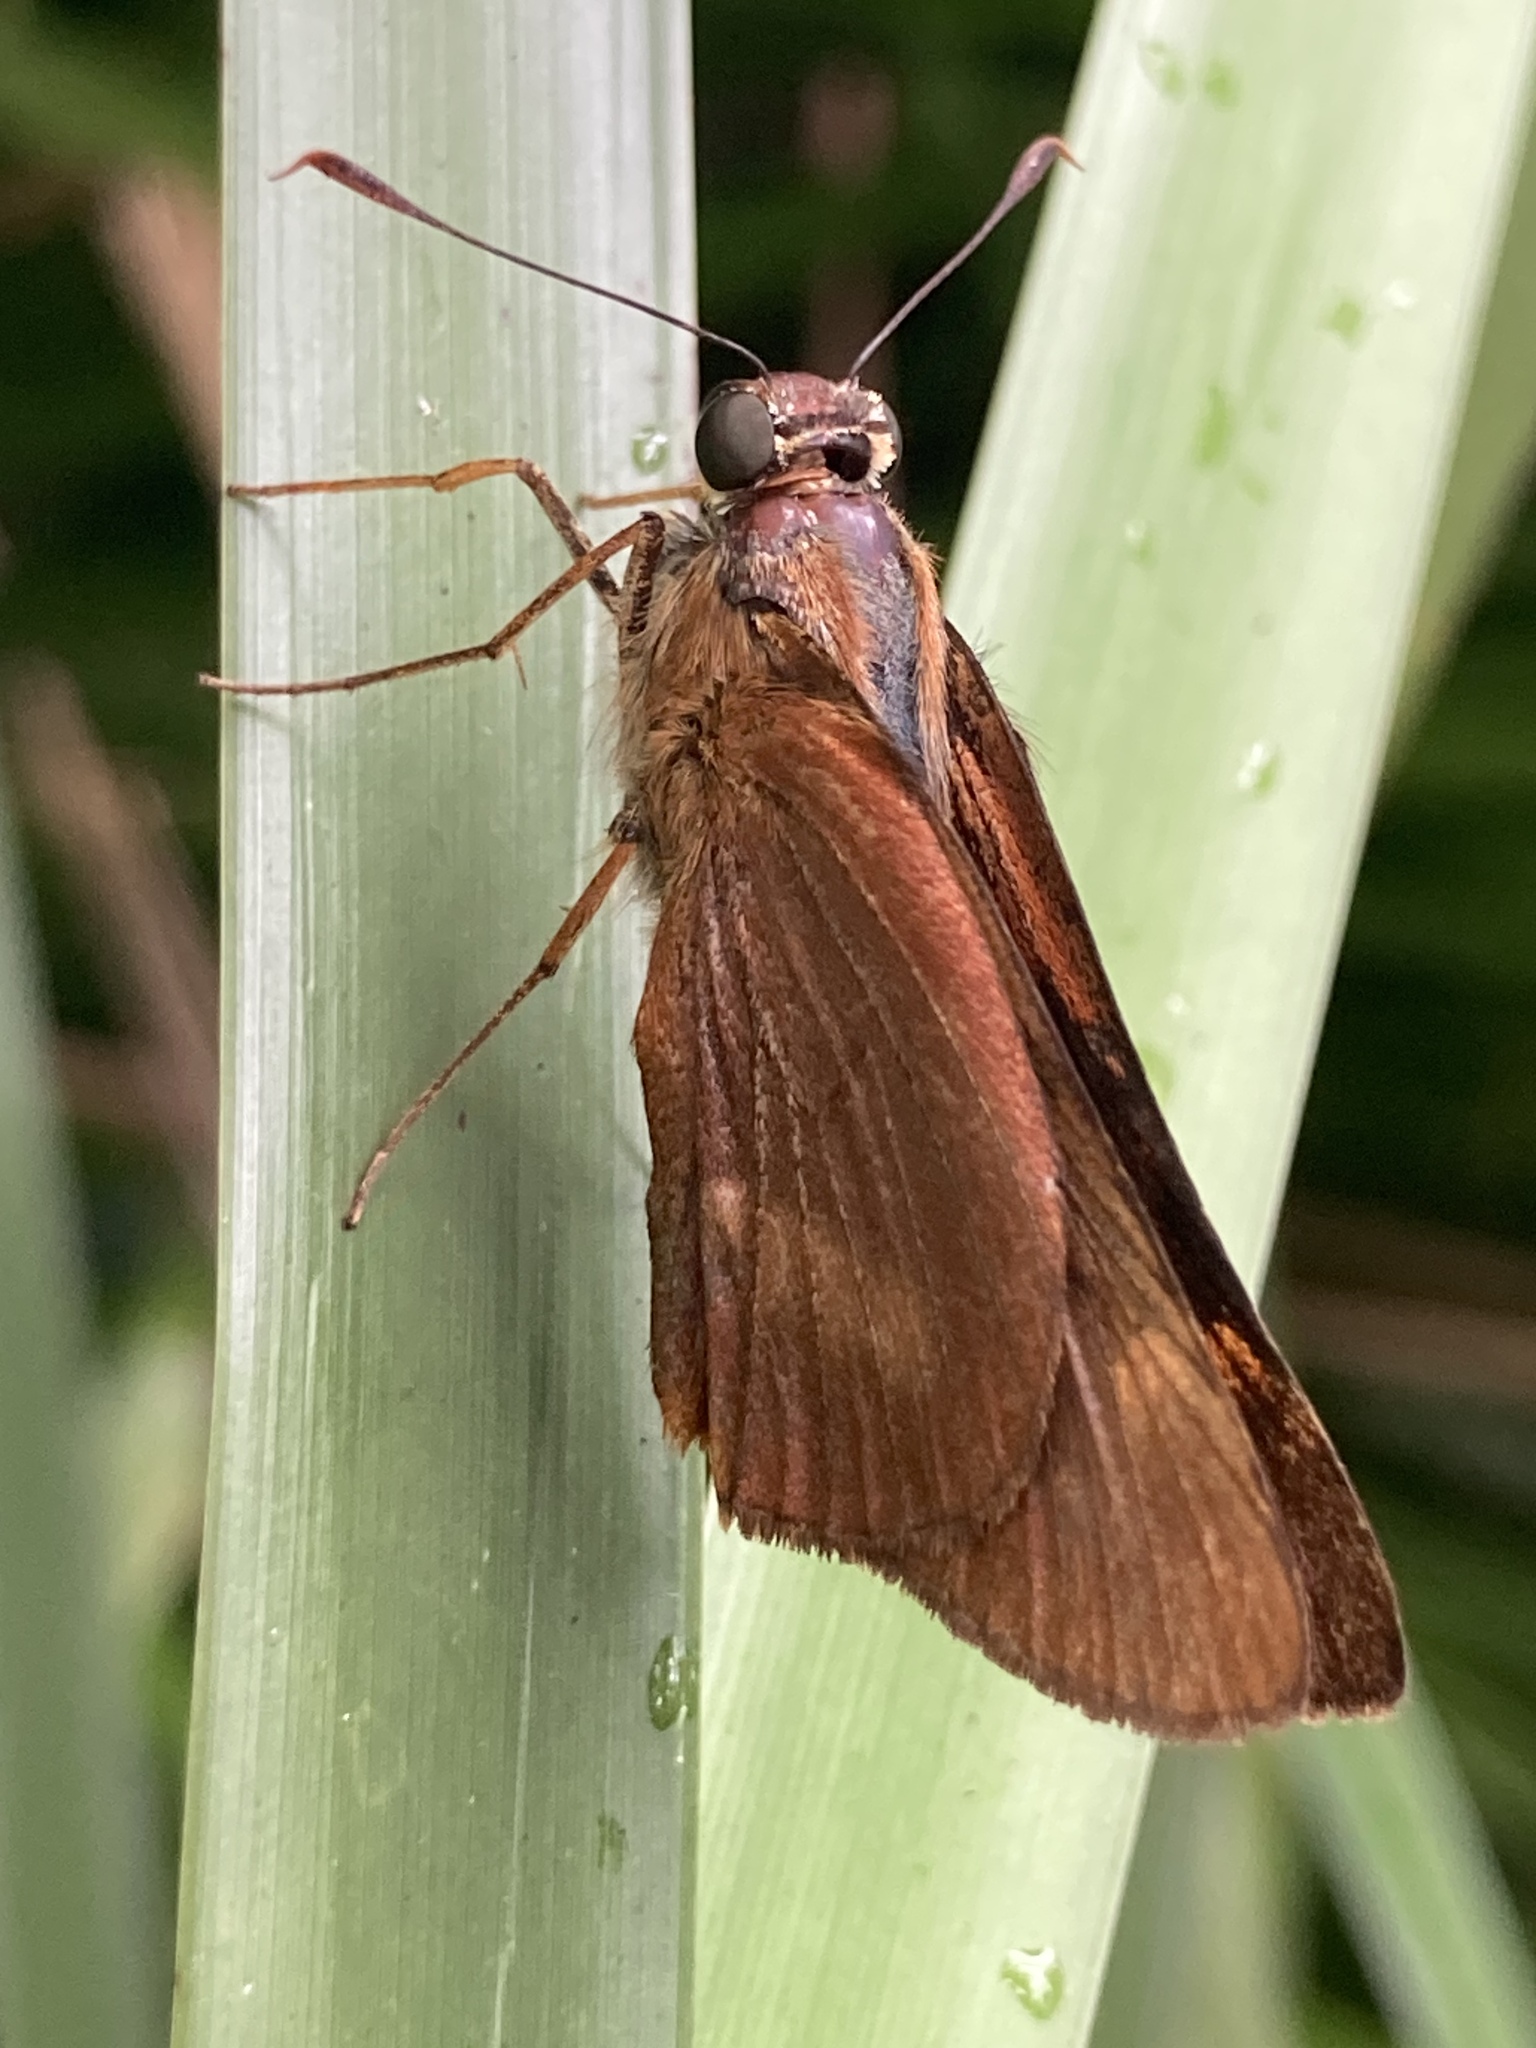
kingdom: Animalia
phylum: Arthropoda
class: Insecta
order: Lepidoptera
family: Hesperiidae
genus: Cephrenes
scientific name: Cephrenes augiades
